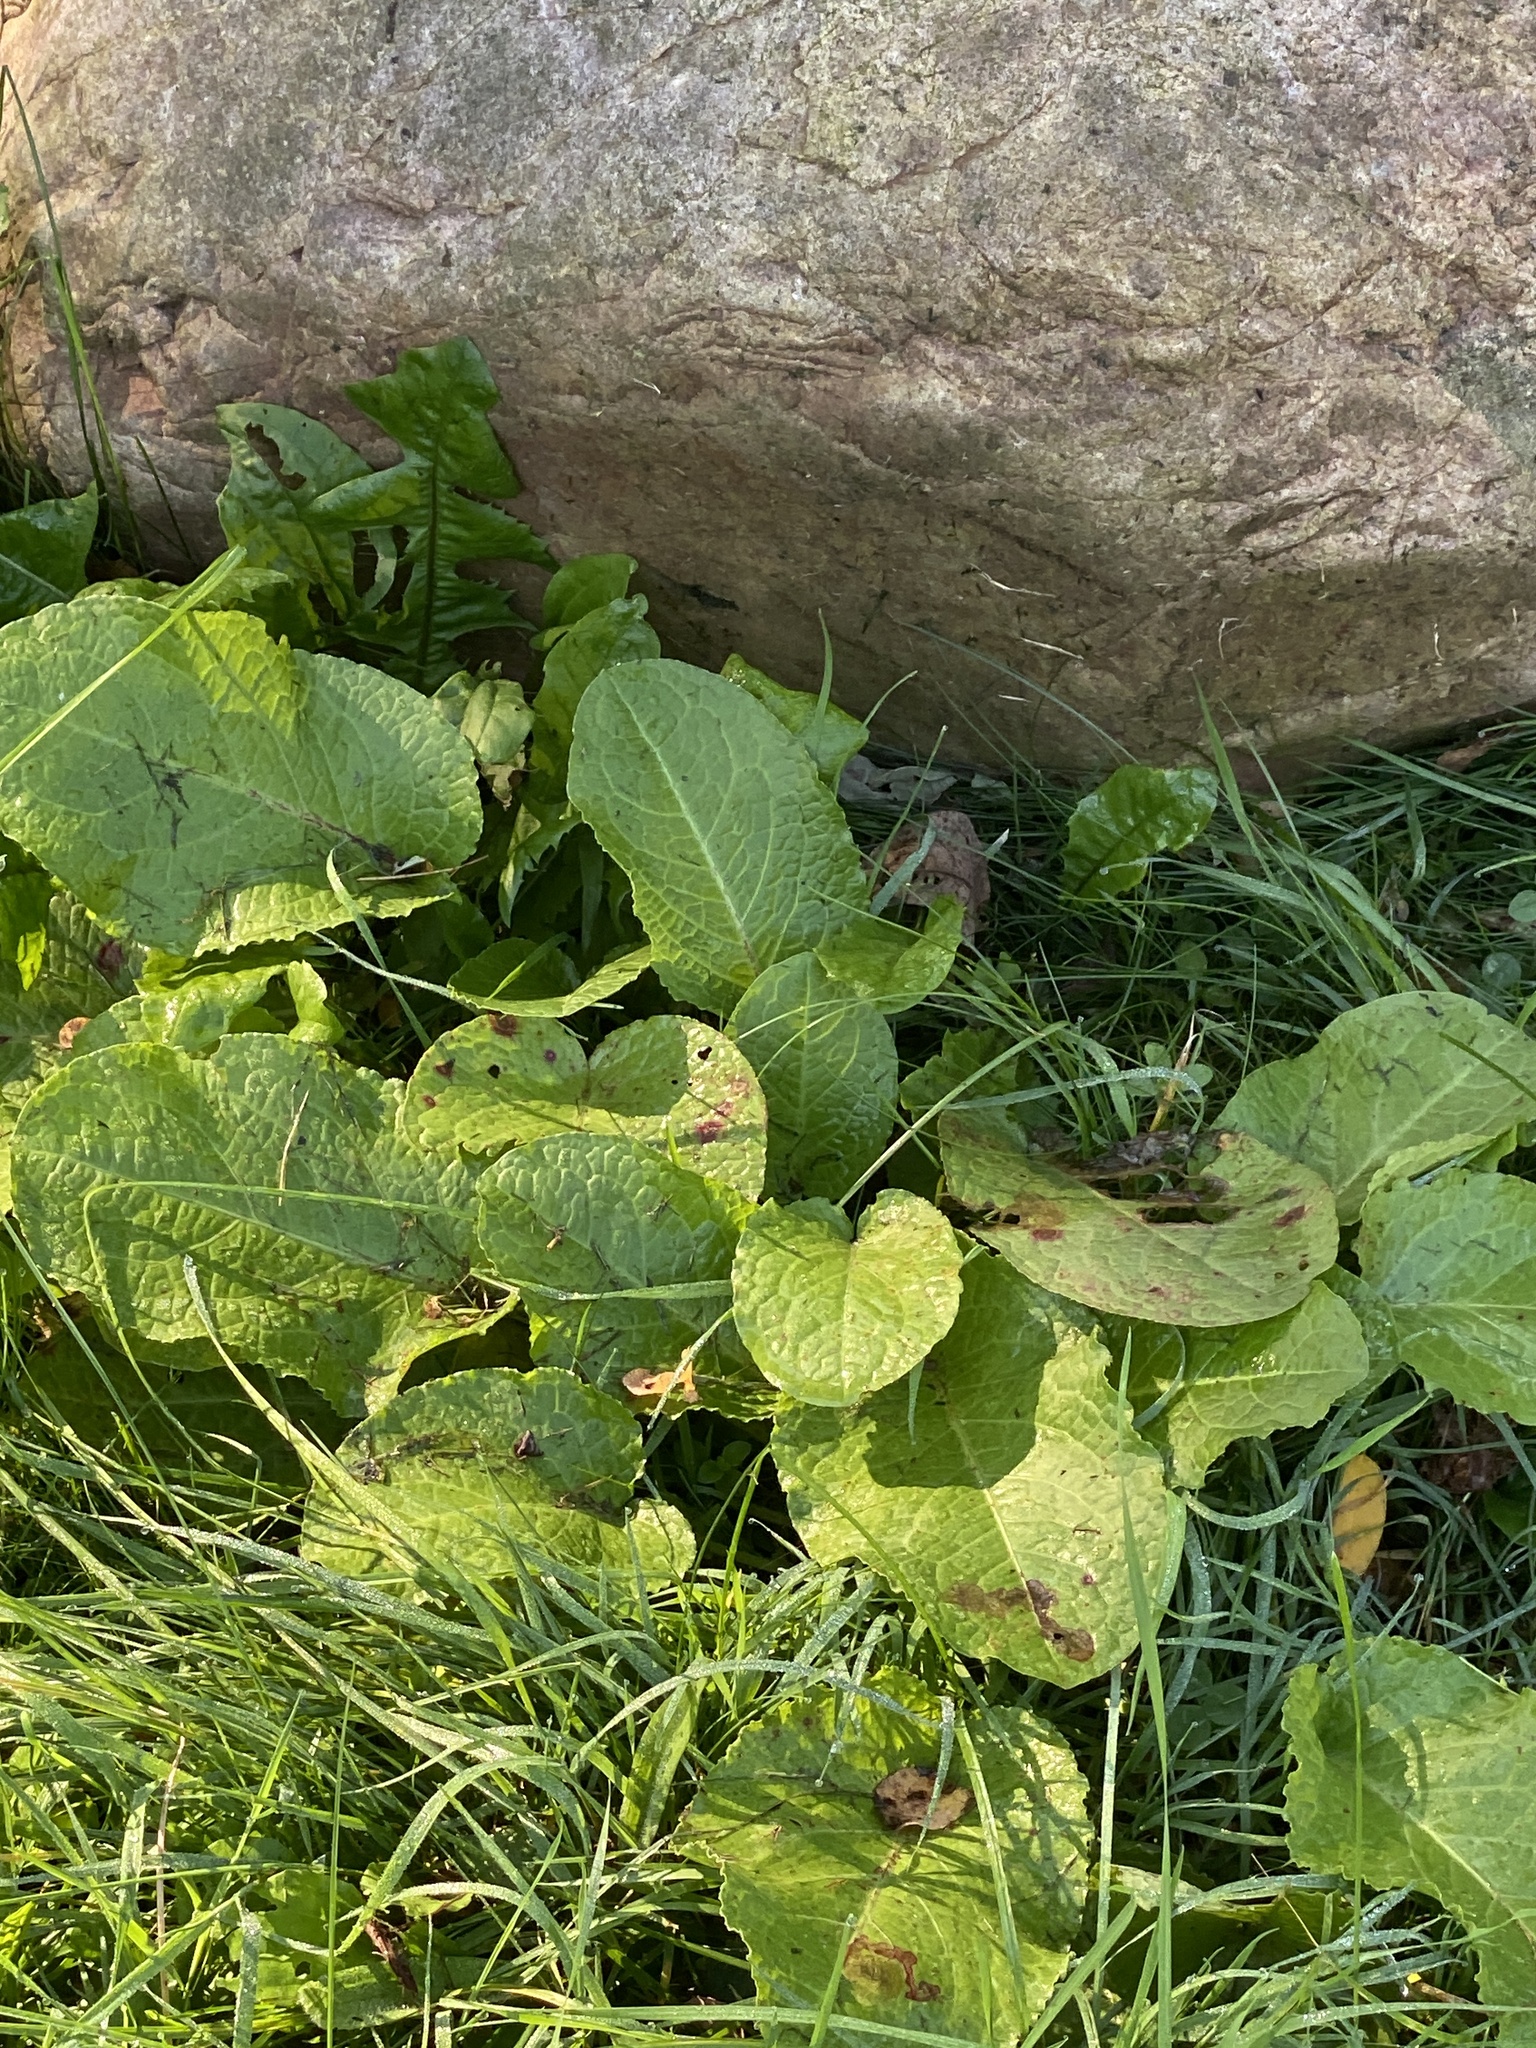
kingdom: Plantae
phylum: Tracheophyta
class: Magnoliopsida
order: Caryophyllales
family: Polygonaceae
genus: Rumex
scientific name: Rumex obtusifolius
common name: Bitter dock
